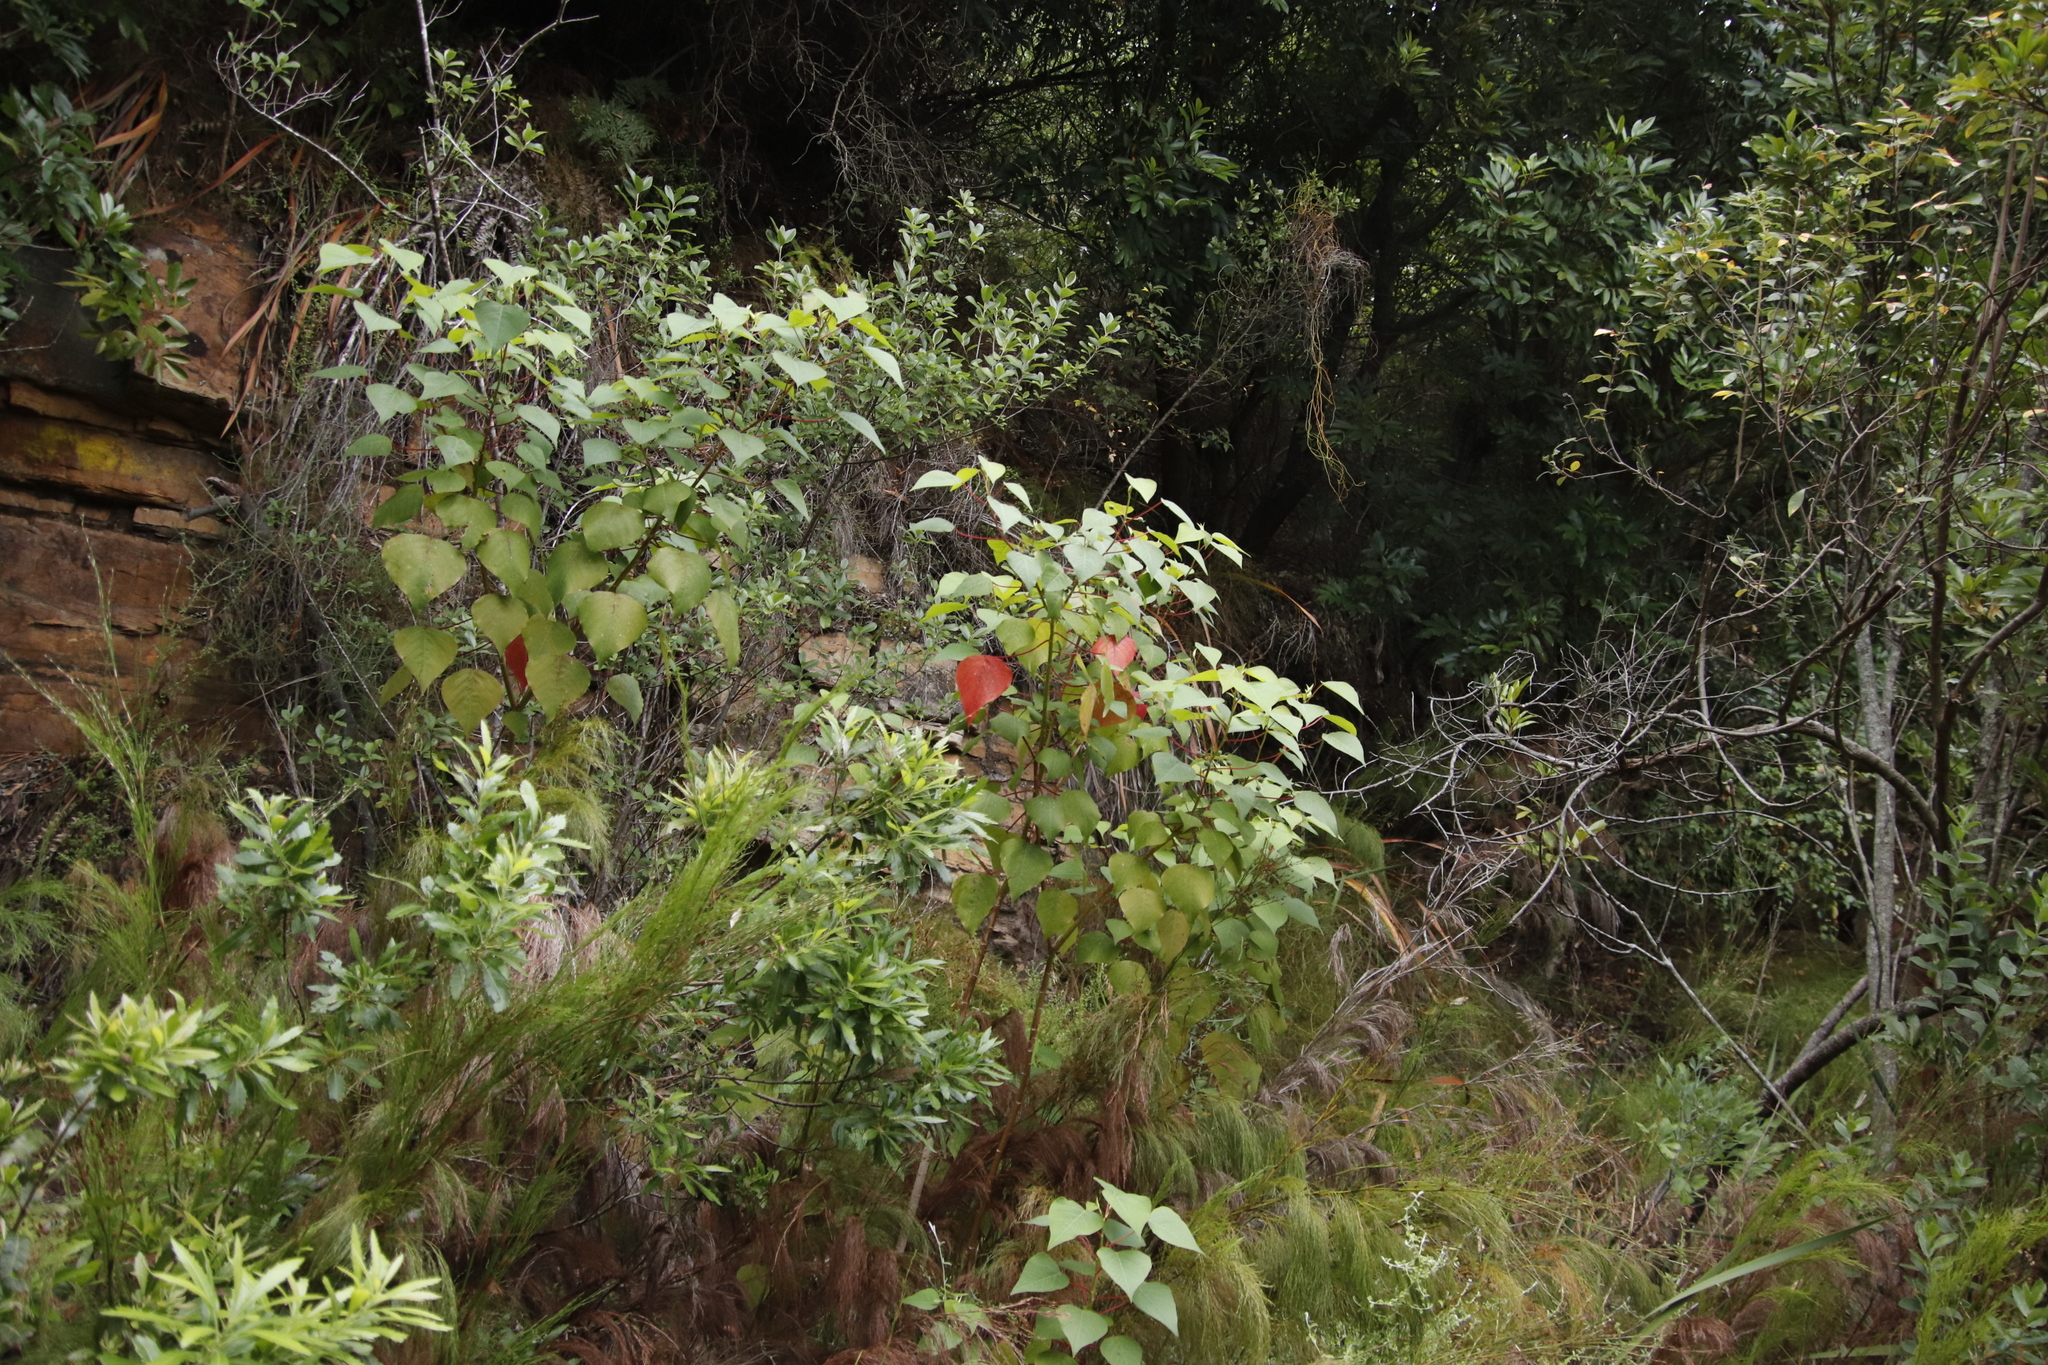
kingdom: Plantae
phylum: Tracheophyta
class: Magnoliopsida
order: Malpighiales
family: Euphorbiaceae
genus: Homalanthus
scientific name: Homalanthus populifolius
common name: Queensland poplar
